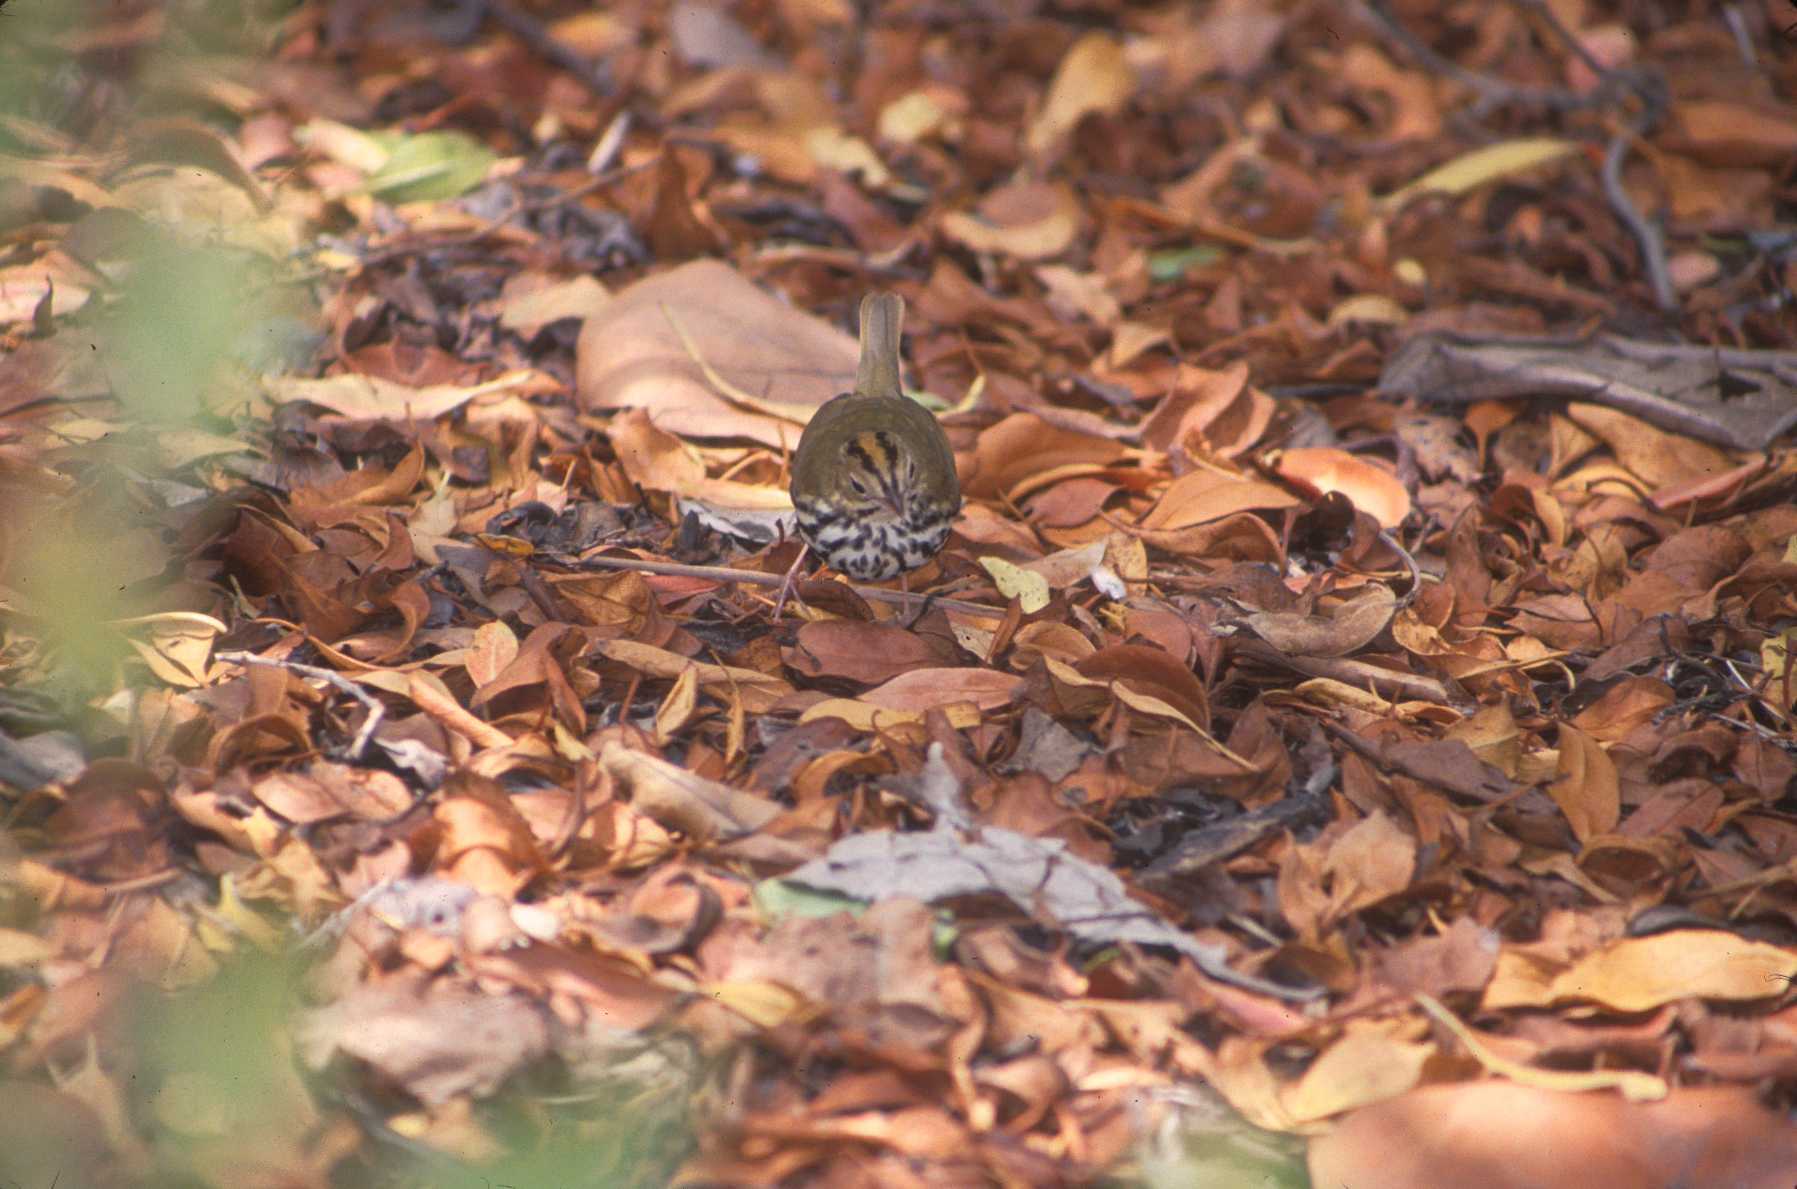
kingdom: Animalia
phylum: Chordata
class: Aves
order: Passeriformes
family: Parulidae
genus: Seiurus
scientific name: Seiurus aurocapilla
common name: Ovenbird
